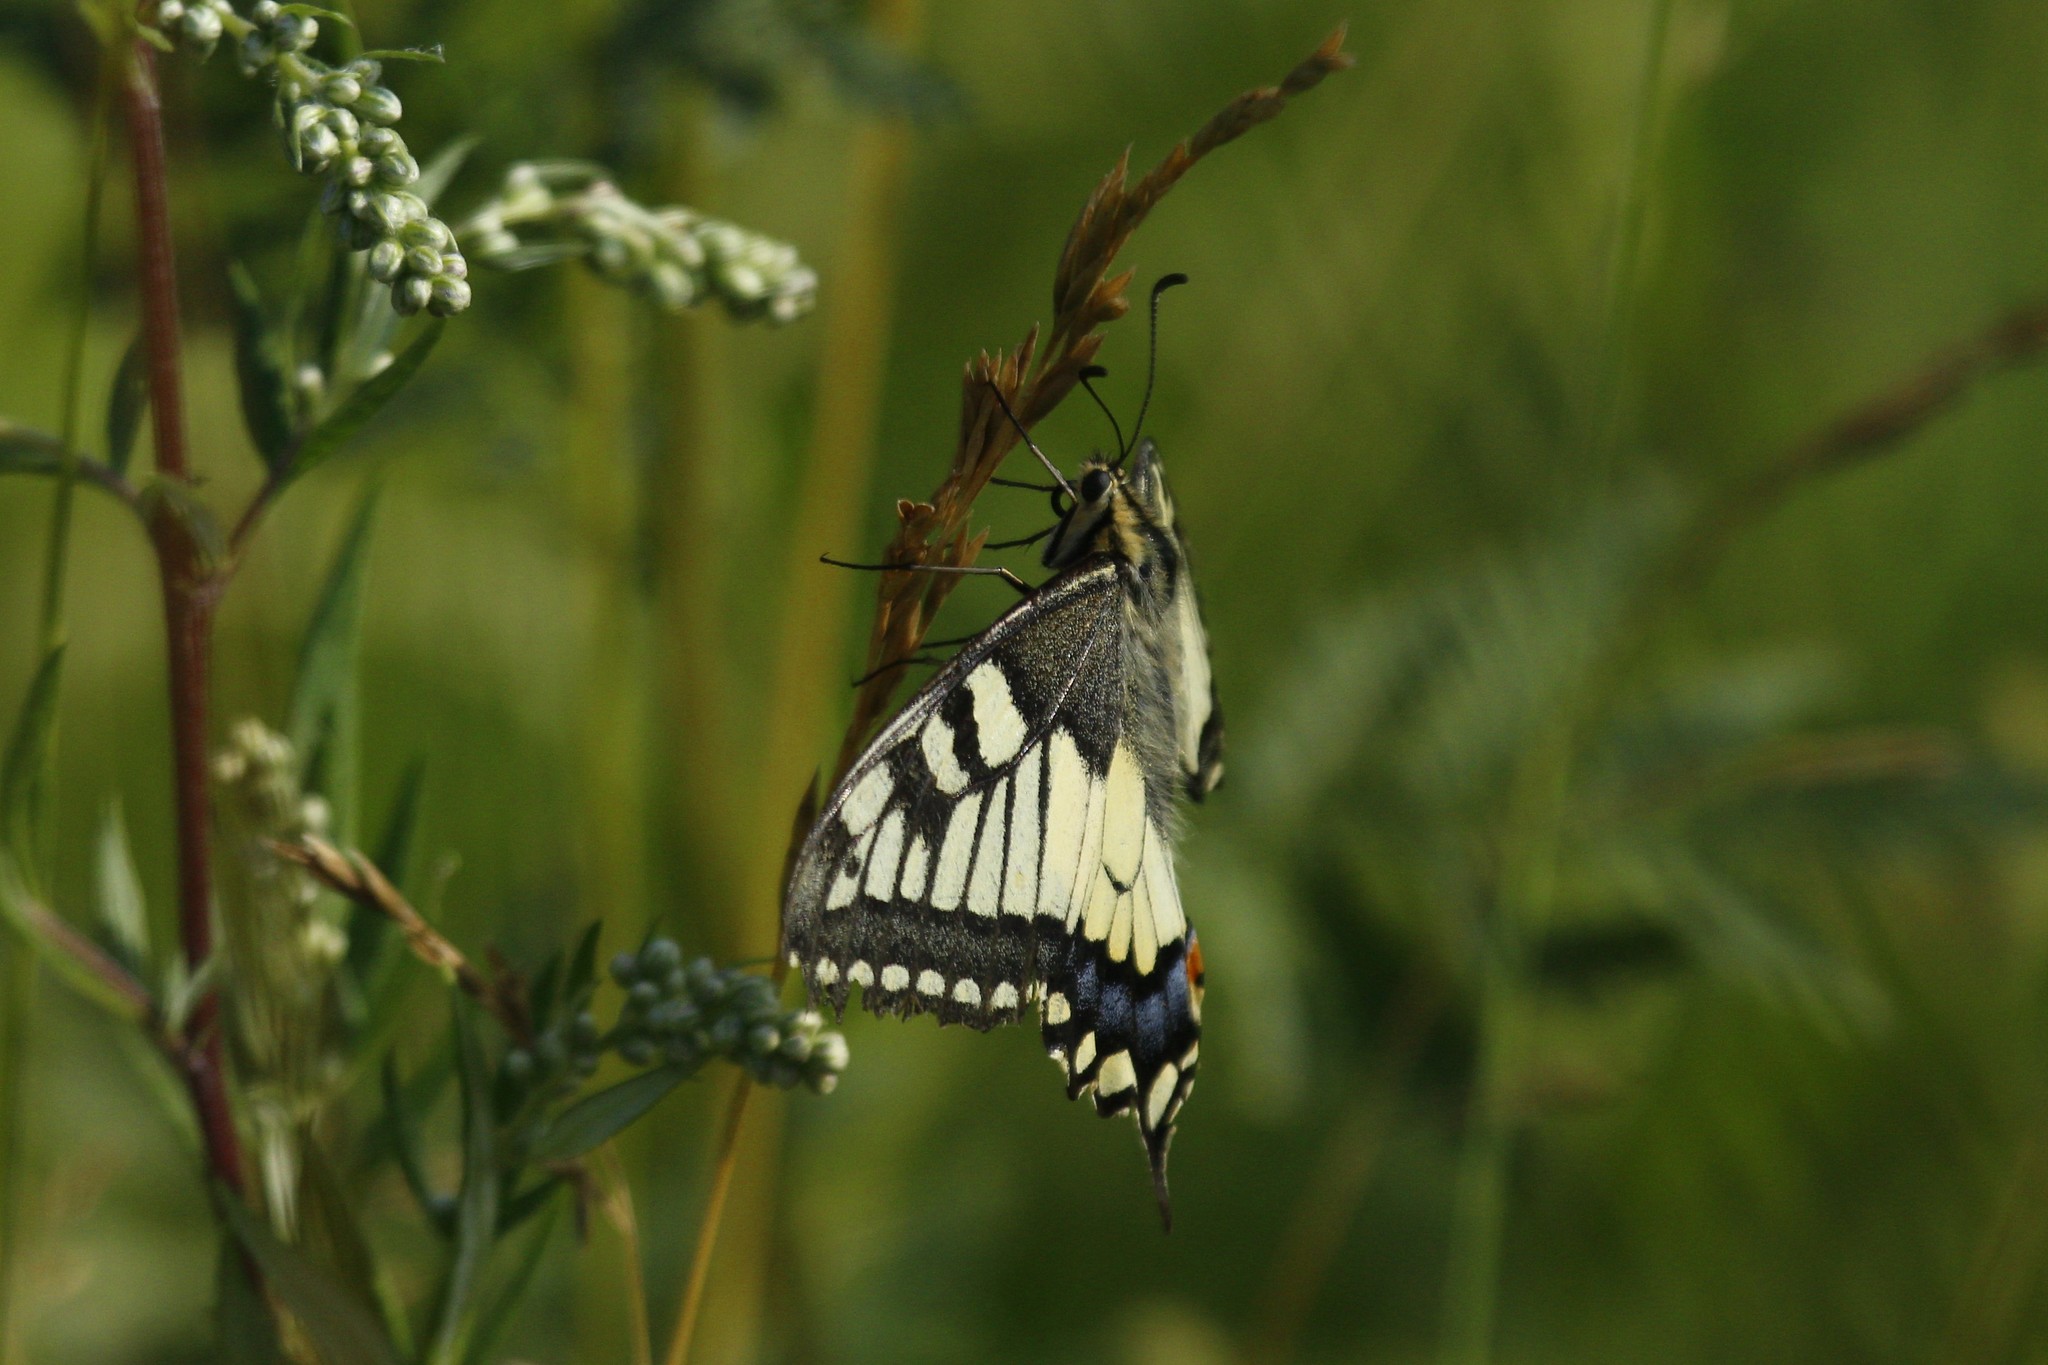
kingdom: Animalia
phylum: Arthropoda
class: Insecta
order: Lepidoptera
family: Papilionidae
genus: Papilio
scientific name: Papilio machaon
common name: Swallowtail
